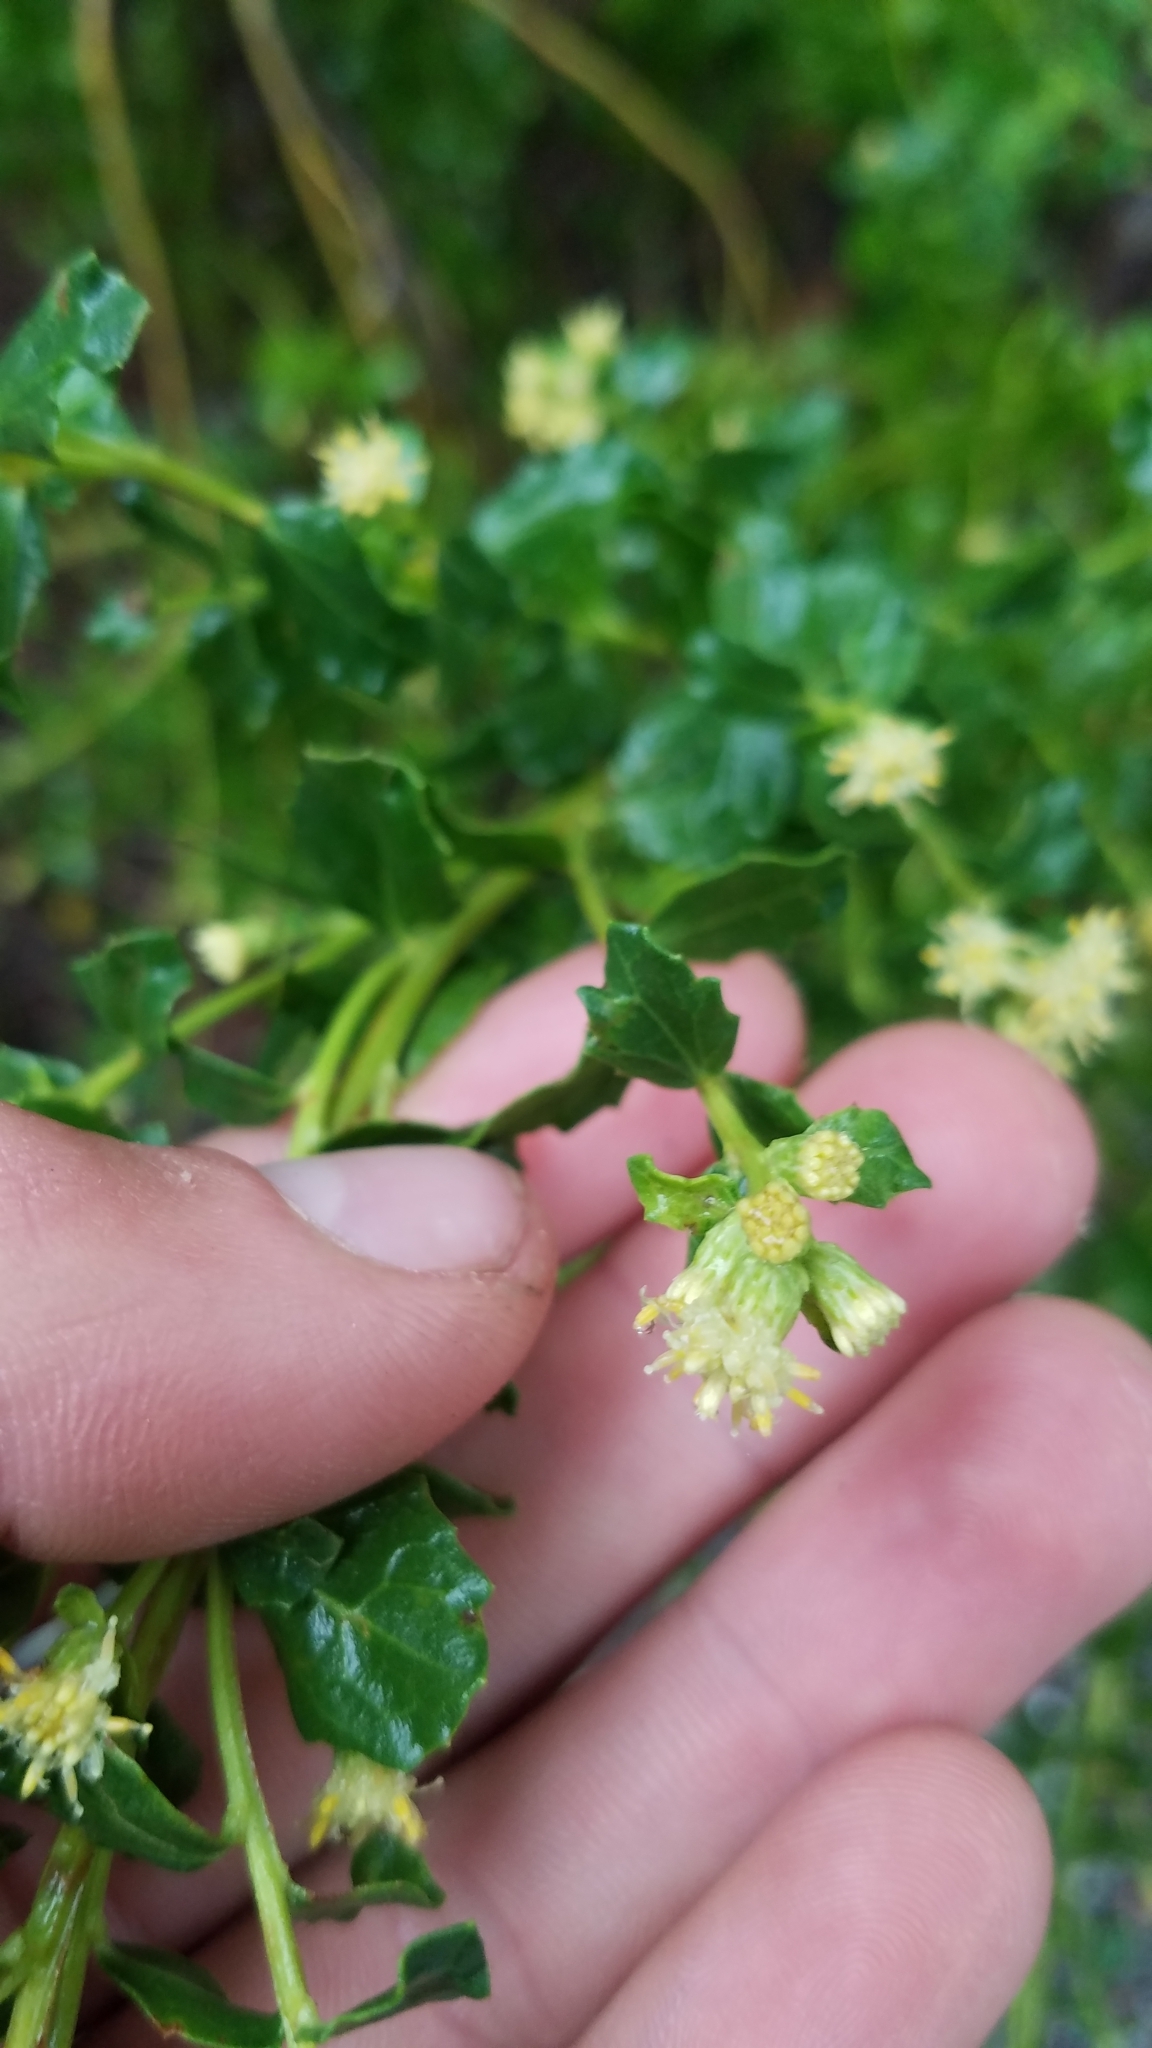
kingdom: Plantae
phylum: Tracheophyta
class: Magnoliopsida
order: Asterales
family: Asteraceae
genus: Baccharis
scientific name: Baccharis pilularis
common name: Coyotebrush
